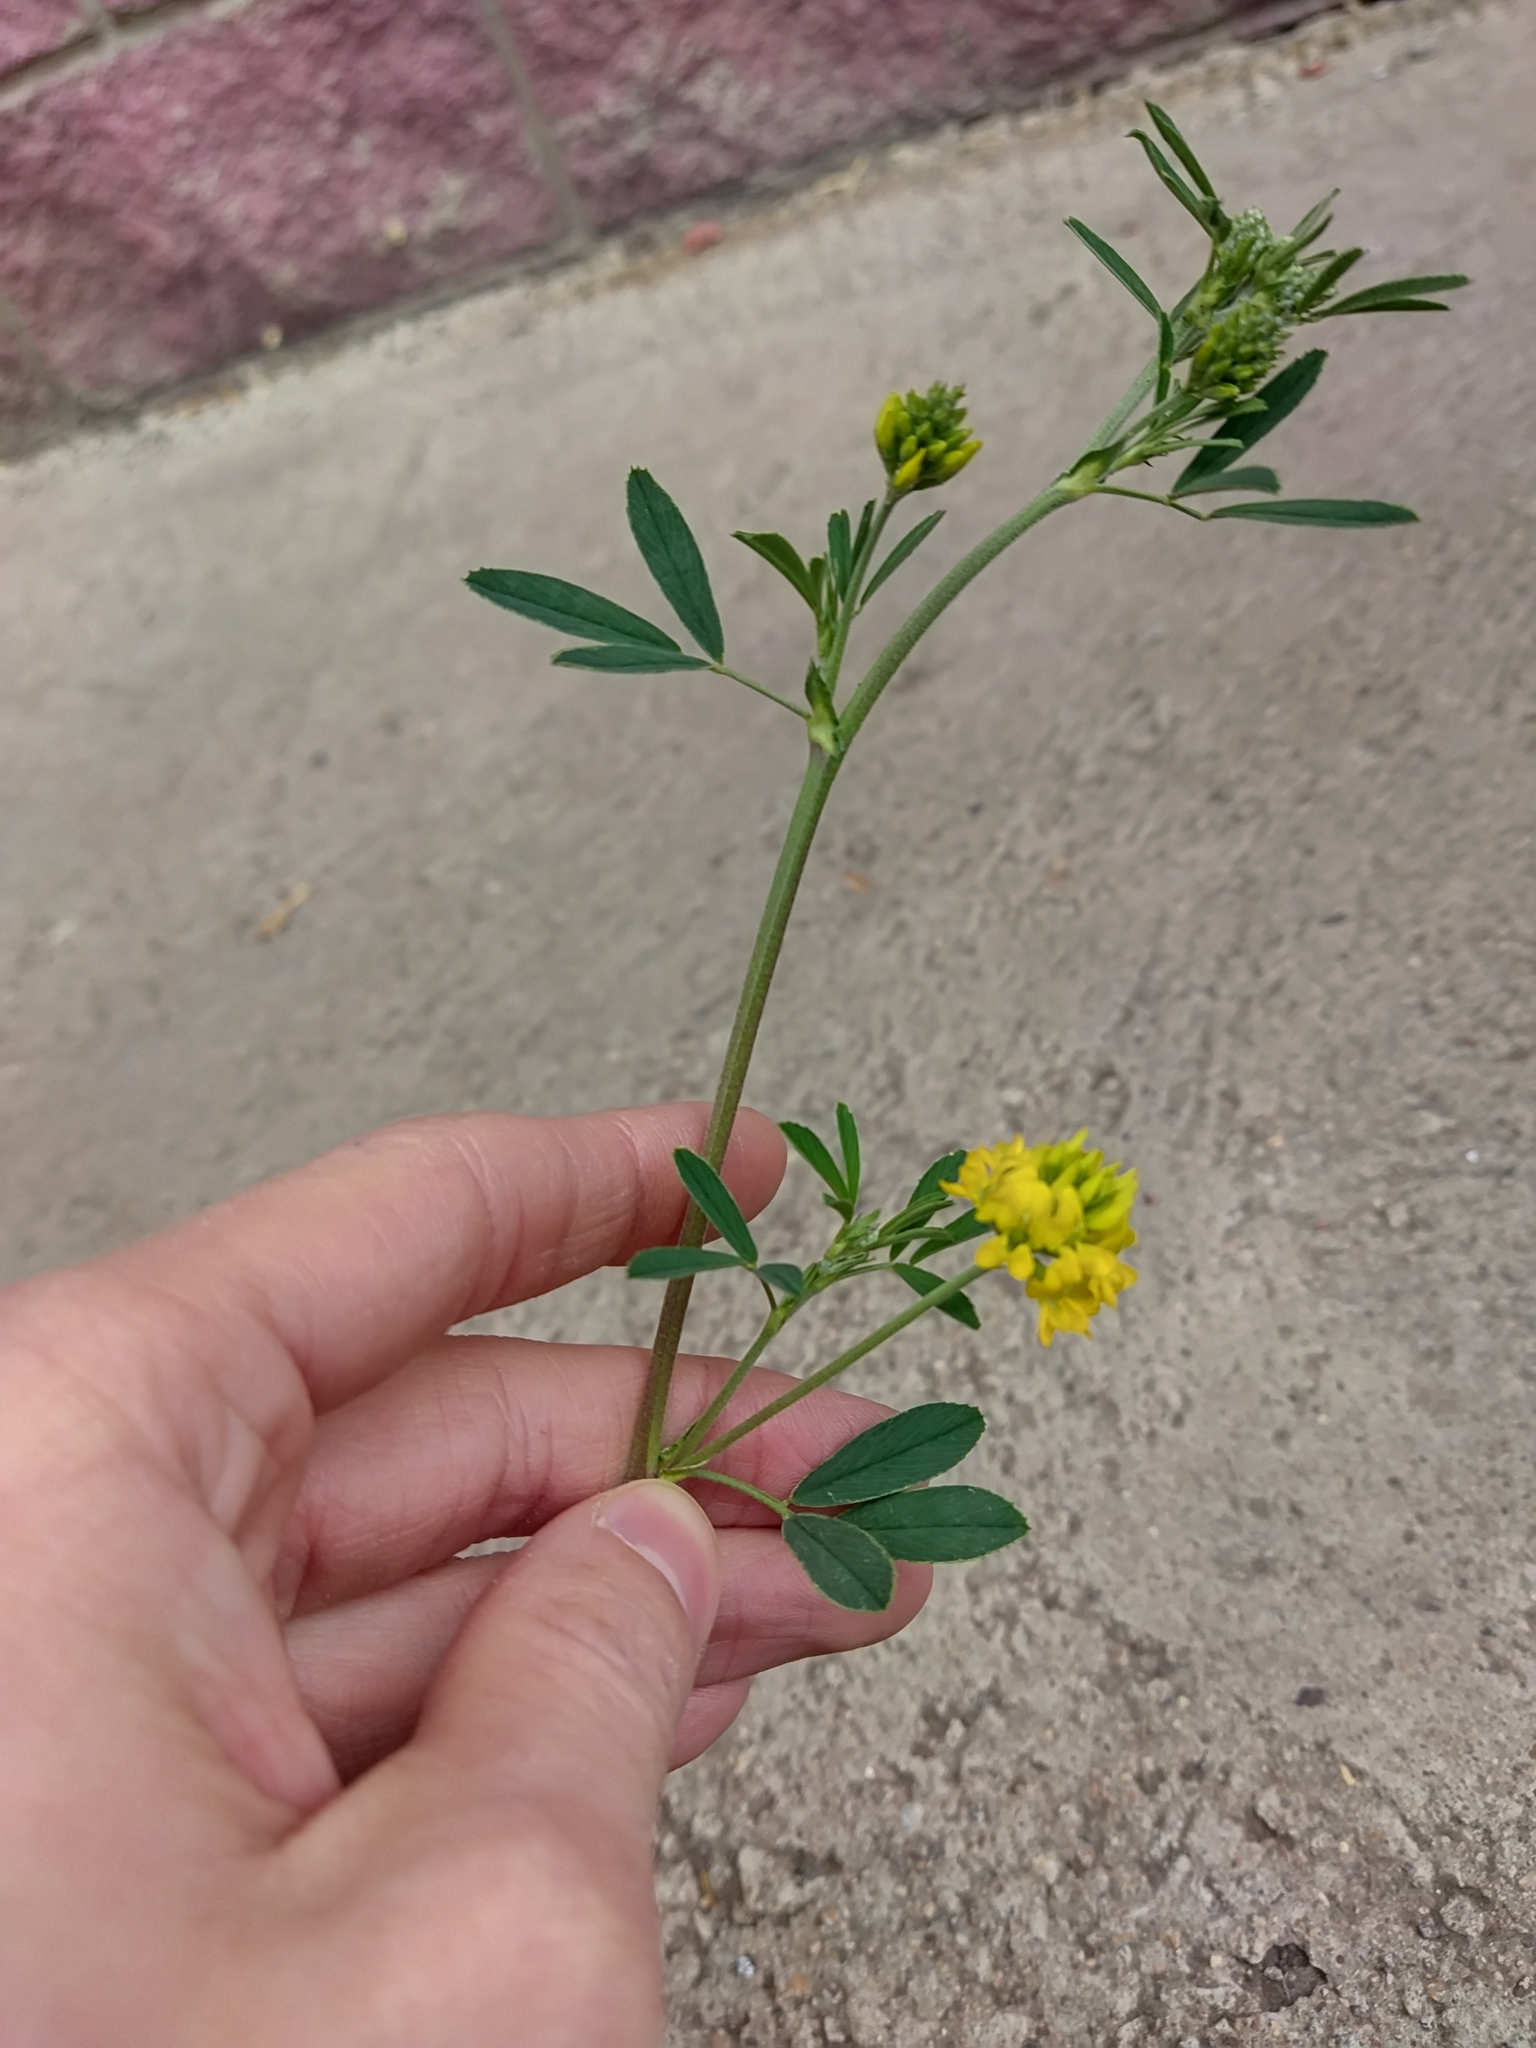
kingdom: Plantae
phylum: Tracheophyta
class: Magnoliopsida
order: Fabales
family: Fabaceae
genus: Medicago
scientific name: Medicago falcata
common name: Sickle medick
